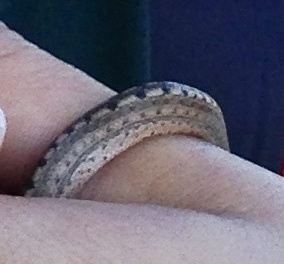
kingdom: Animalia
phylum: Chordata
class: Squamata
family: Tropidophiidae
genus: Tropidophis
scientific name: Tropidophis melanurus
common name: Giant trope
